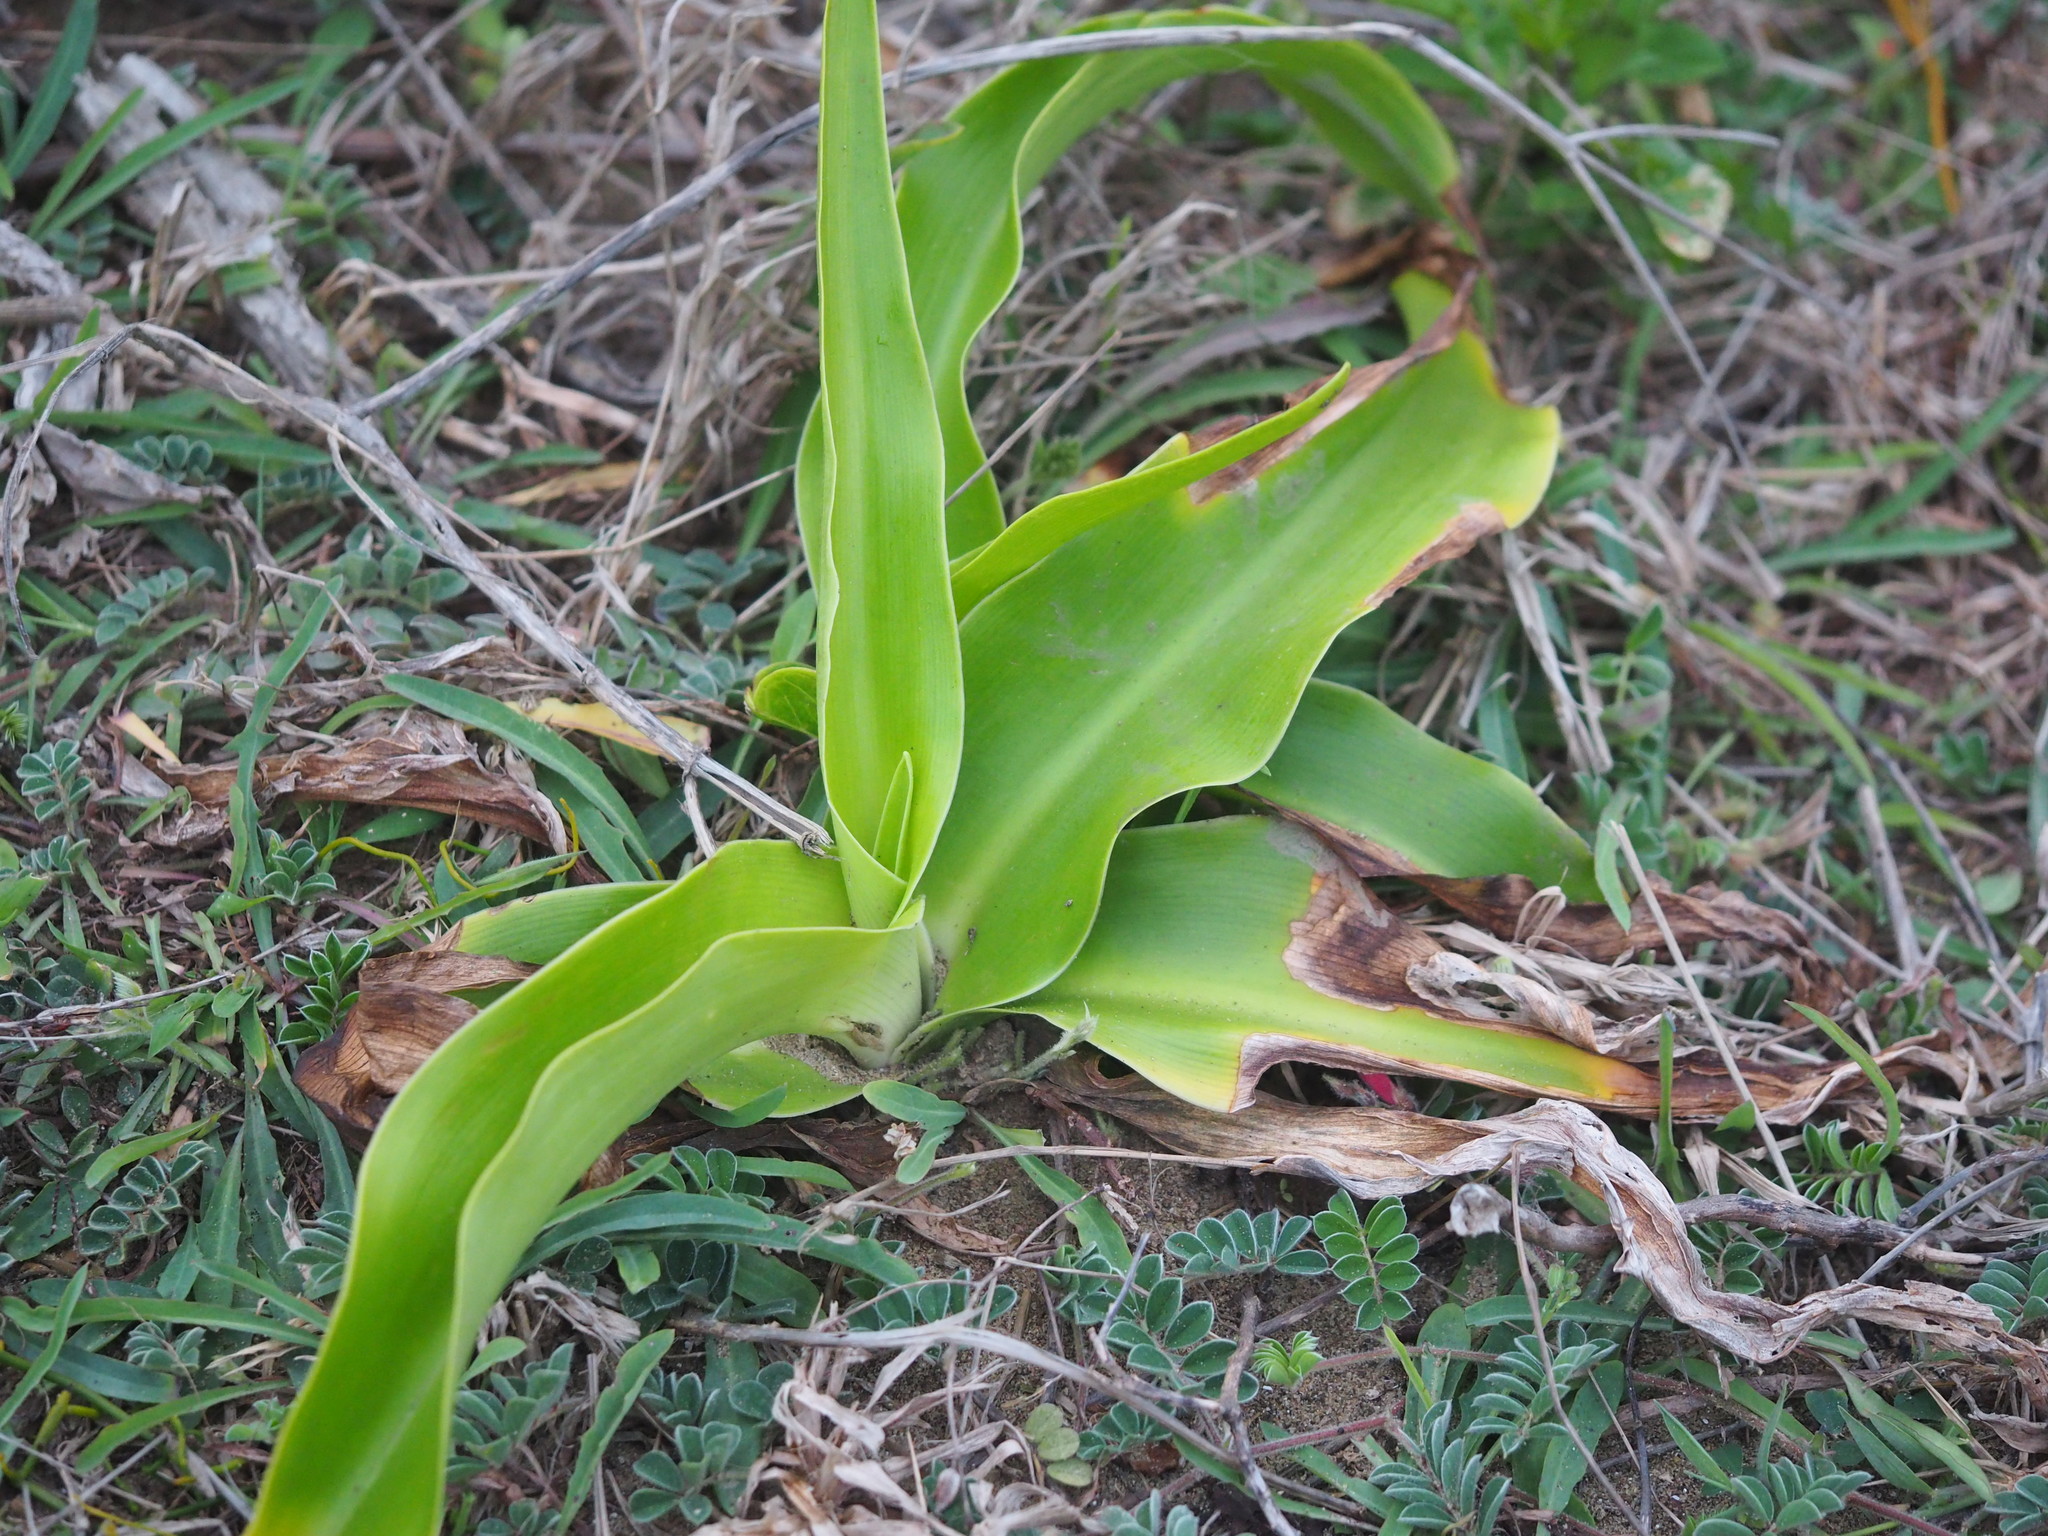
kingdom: Plantae
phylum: Tracheophyta
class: Liliopsida
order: Asparagales
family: Amaryllidaceae
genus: Crinum
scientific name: Crinum asiaticum
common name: Poisonbulb
